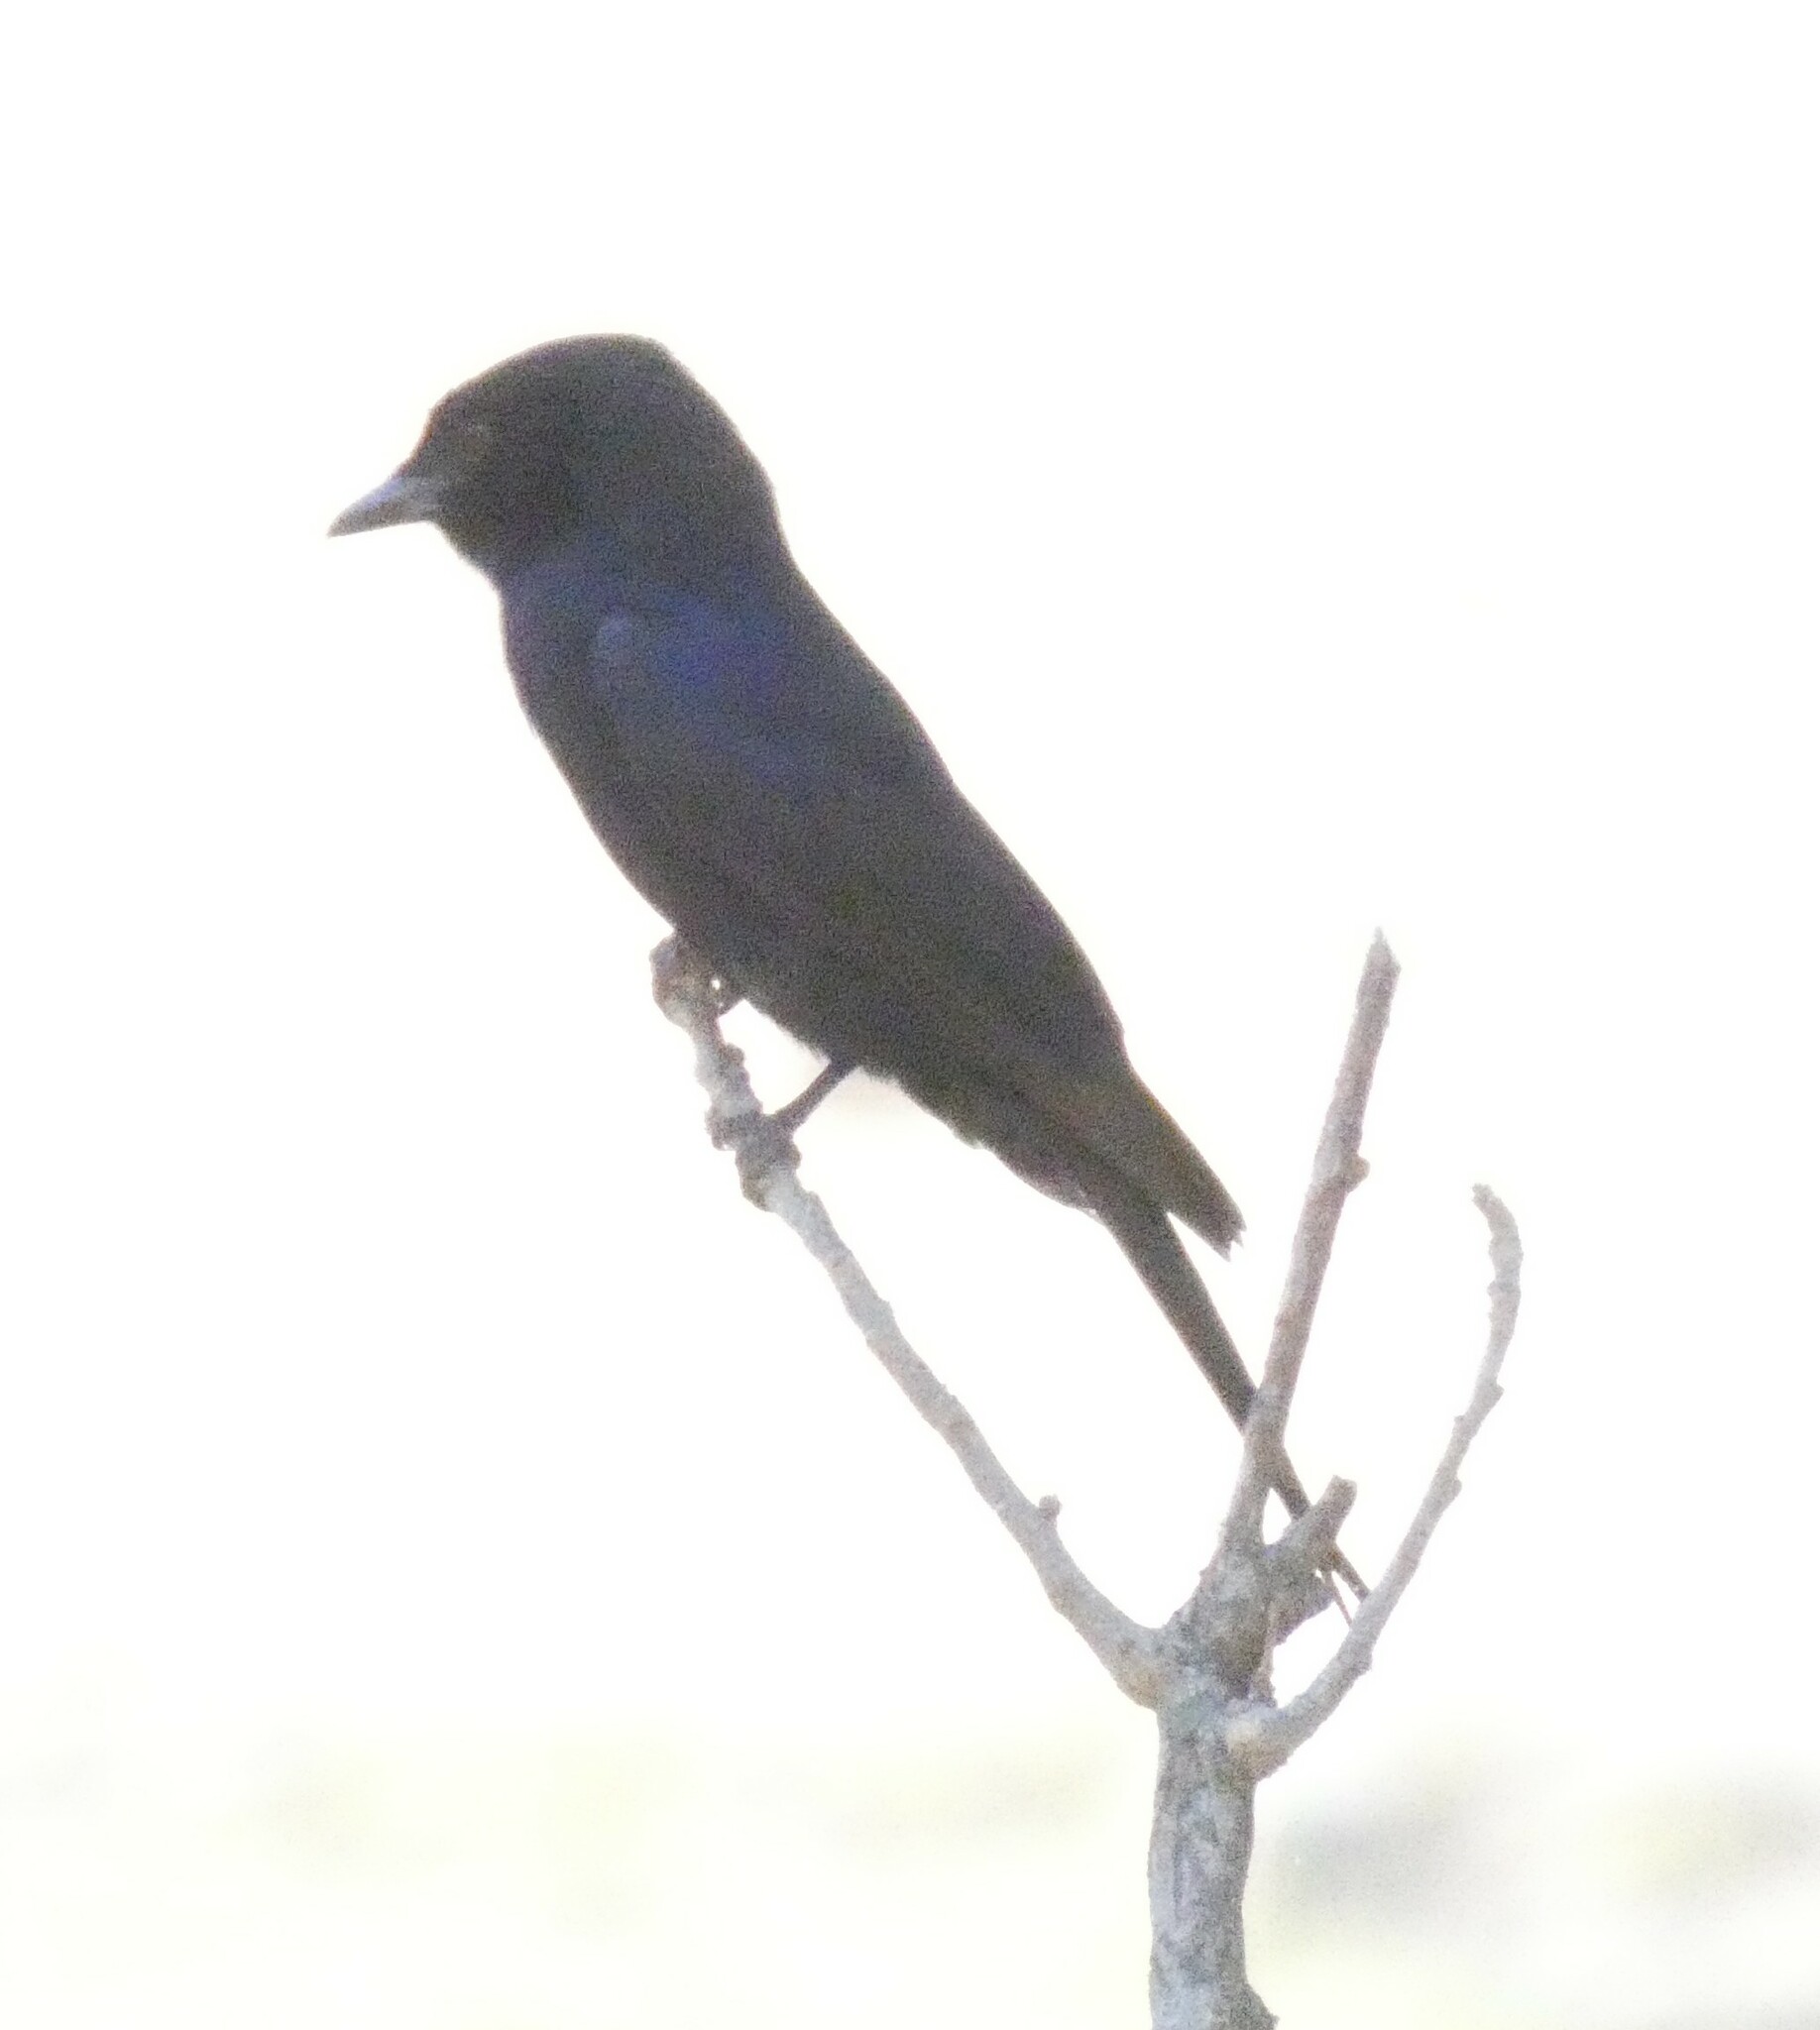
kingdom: Animalia
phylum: Chordata
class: Aves
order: Passeriformes
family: Dicruridae
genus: Dicrurus
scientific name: Dicrurus adsimilis
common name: Fork-tailed drongo
